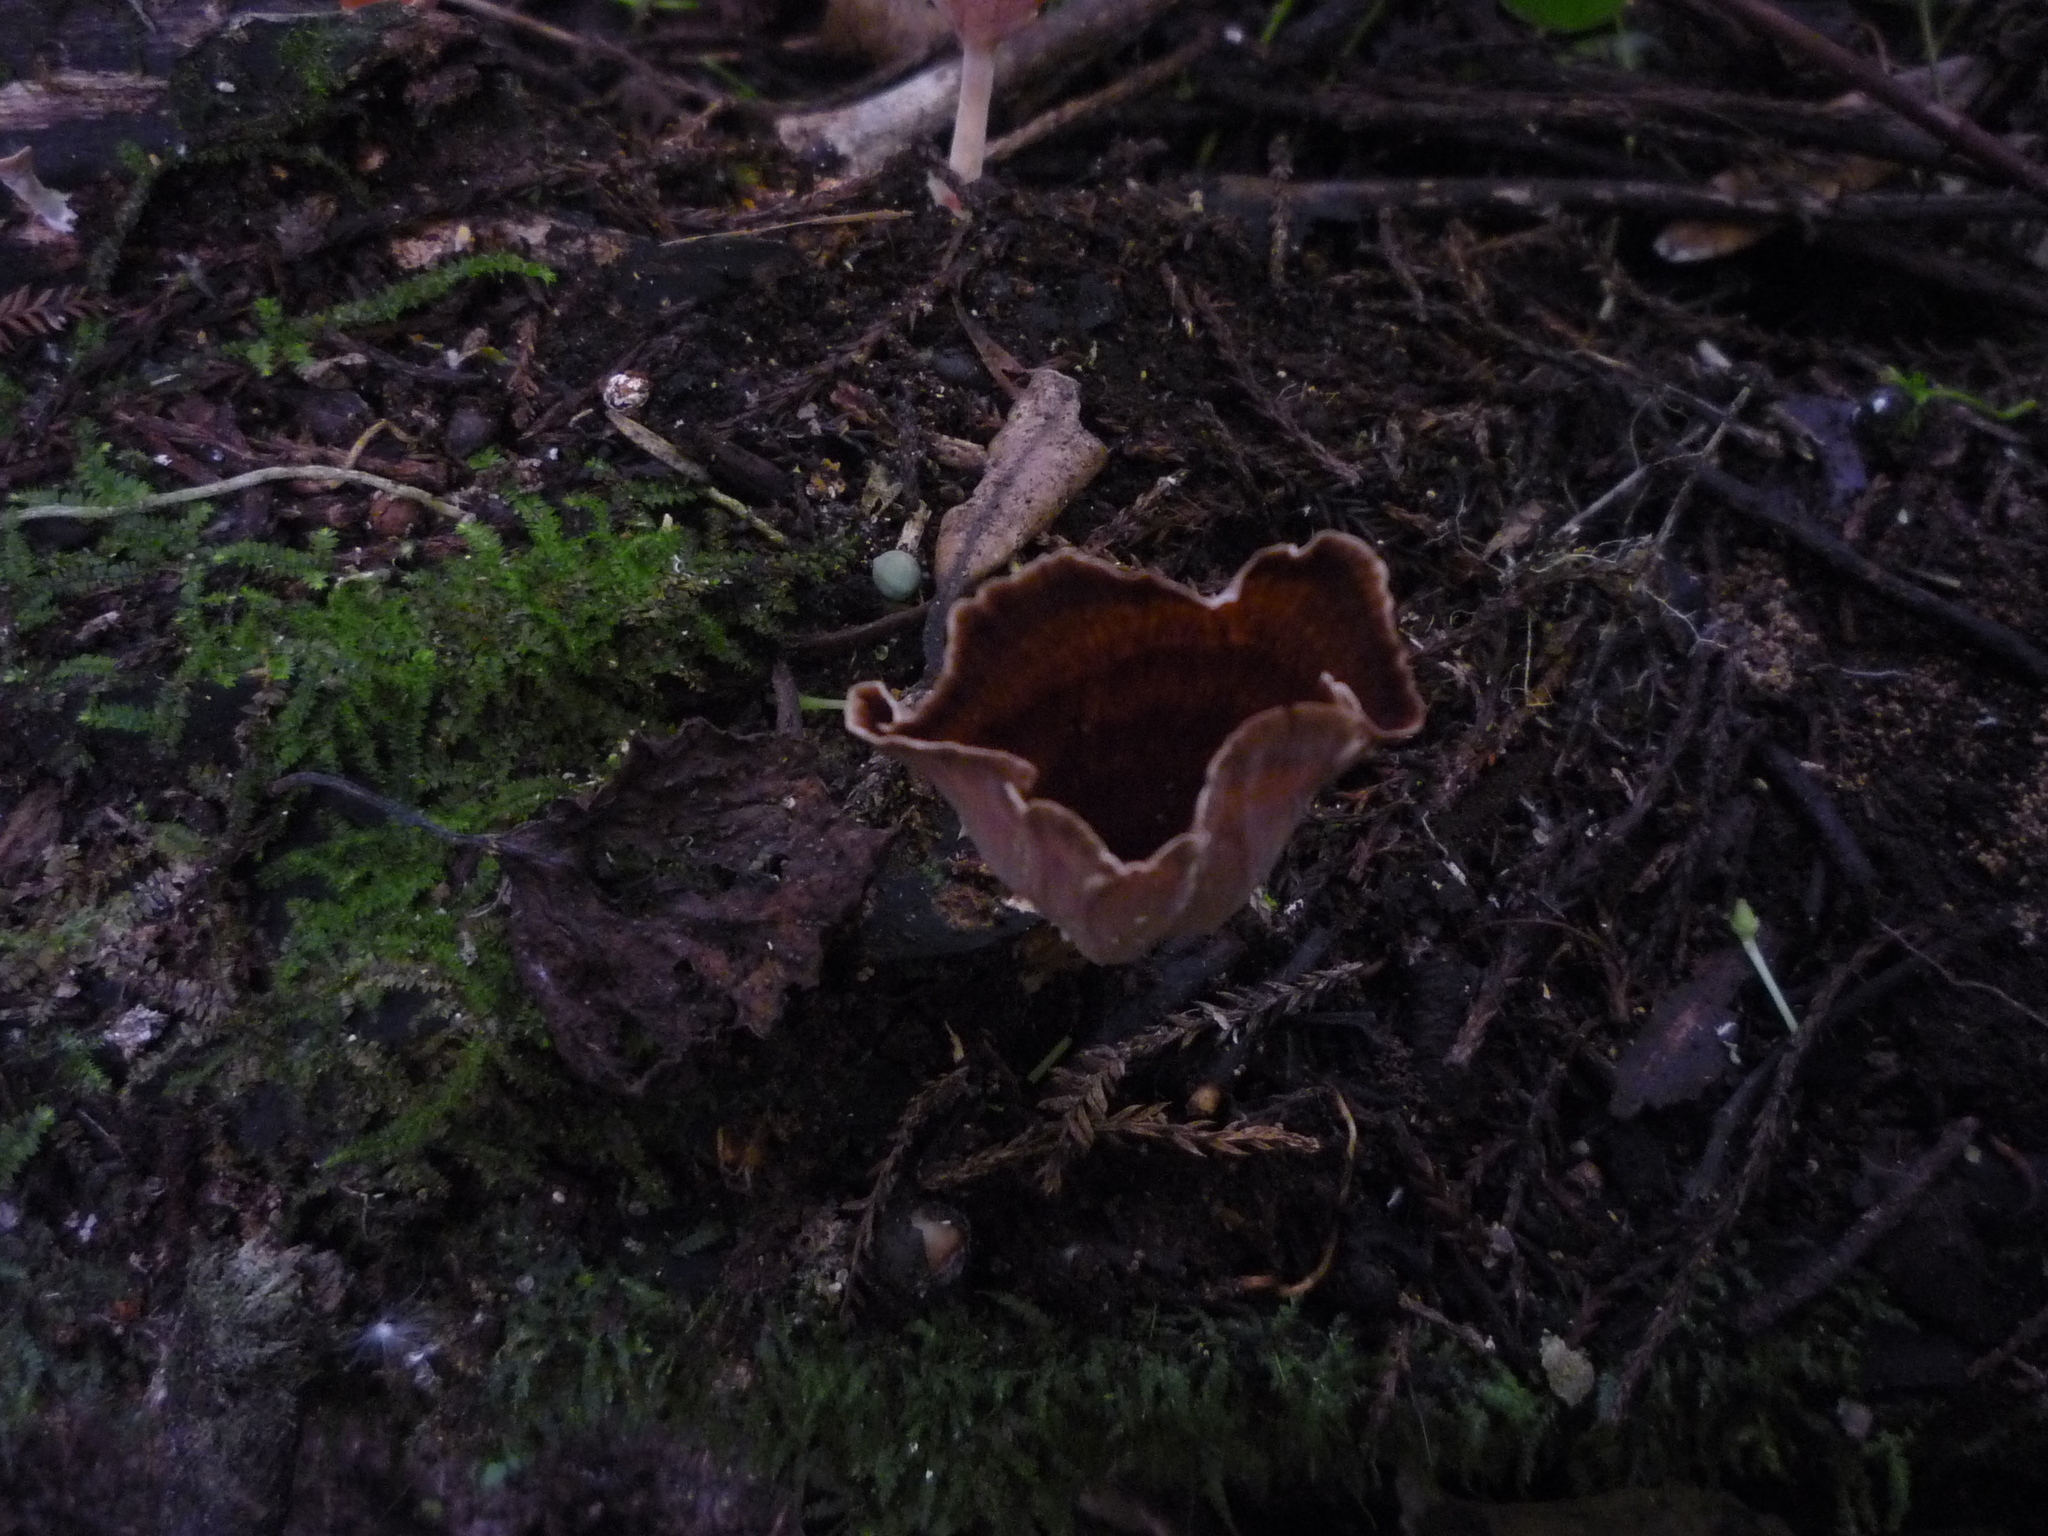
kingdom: Fungi
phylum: Basidiomycota
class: Agaricomycetes
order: Polyporales
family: Podoscyphaceae
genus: Podoscypha
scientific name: Podoscypha petalodes
